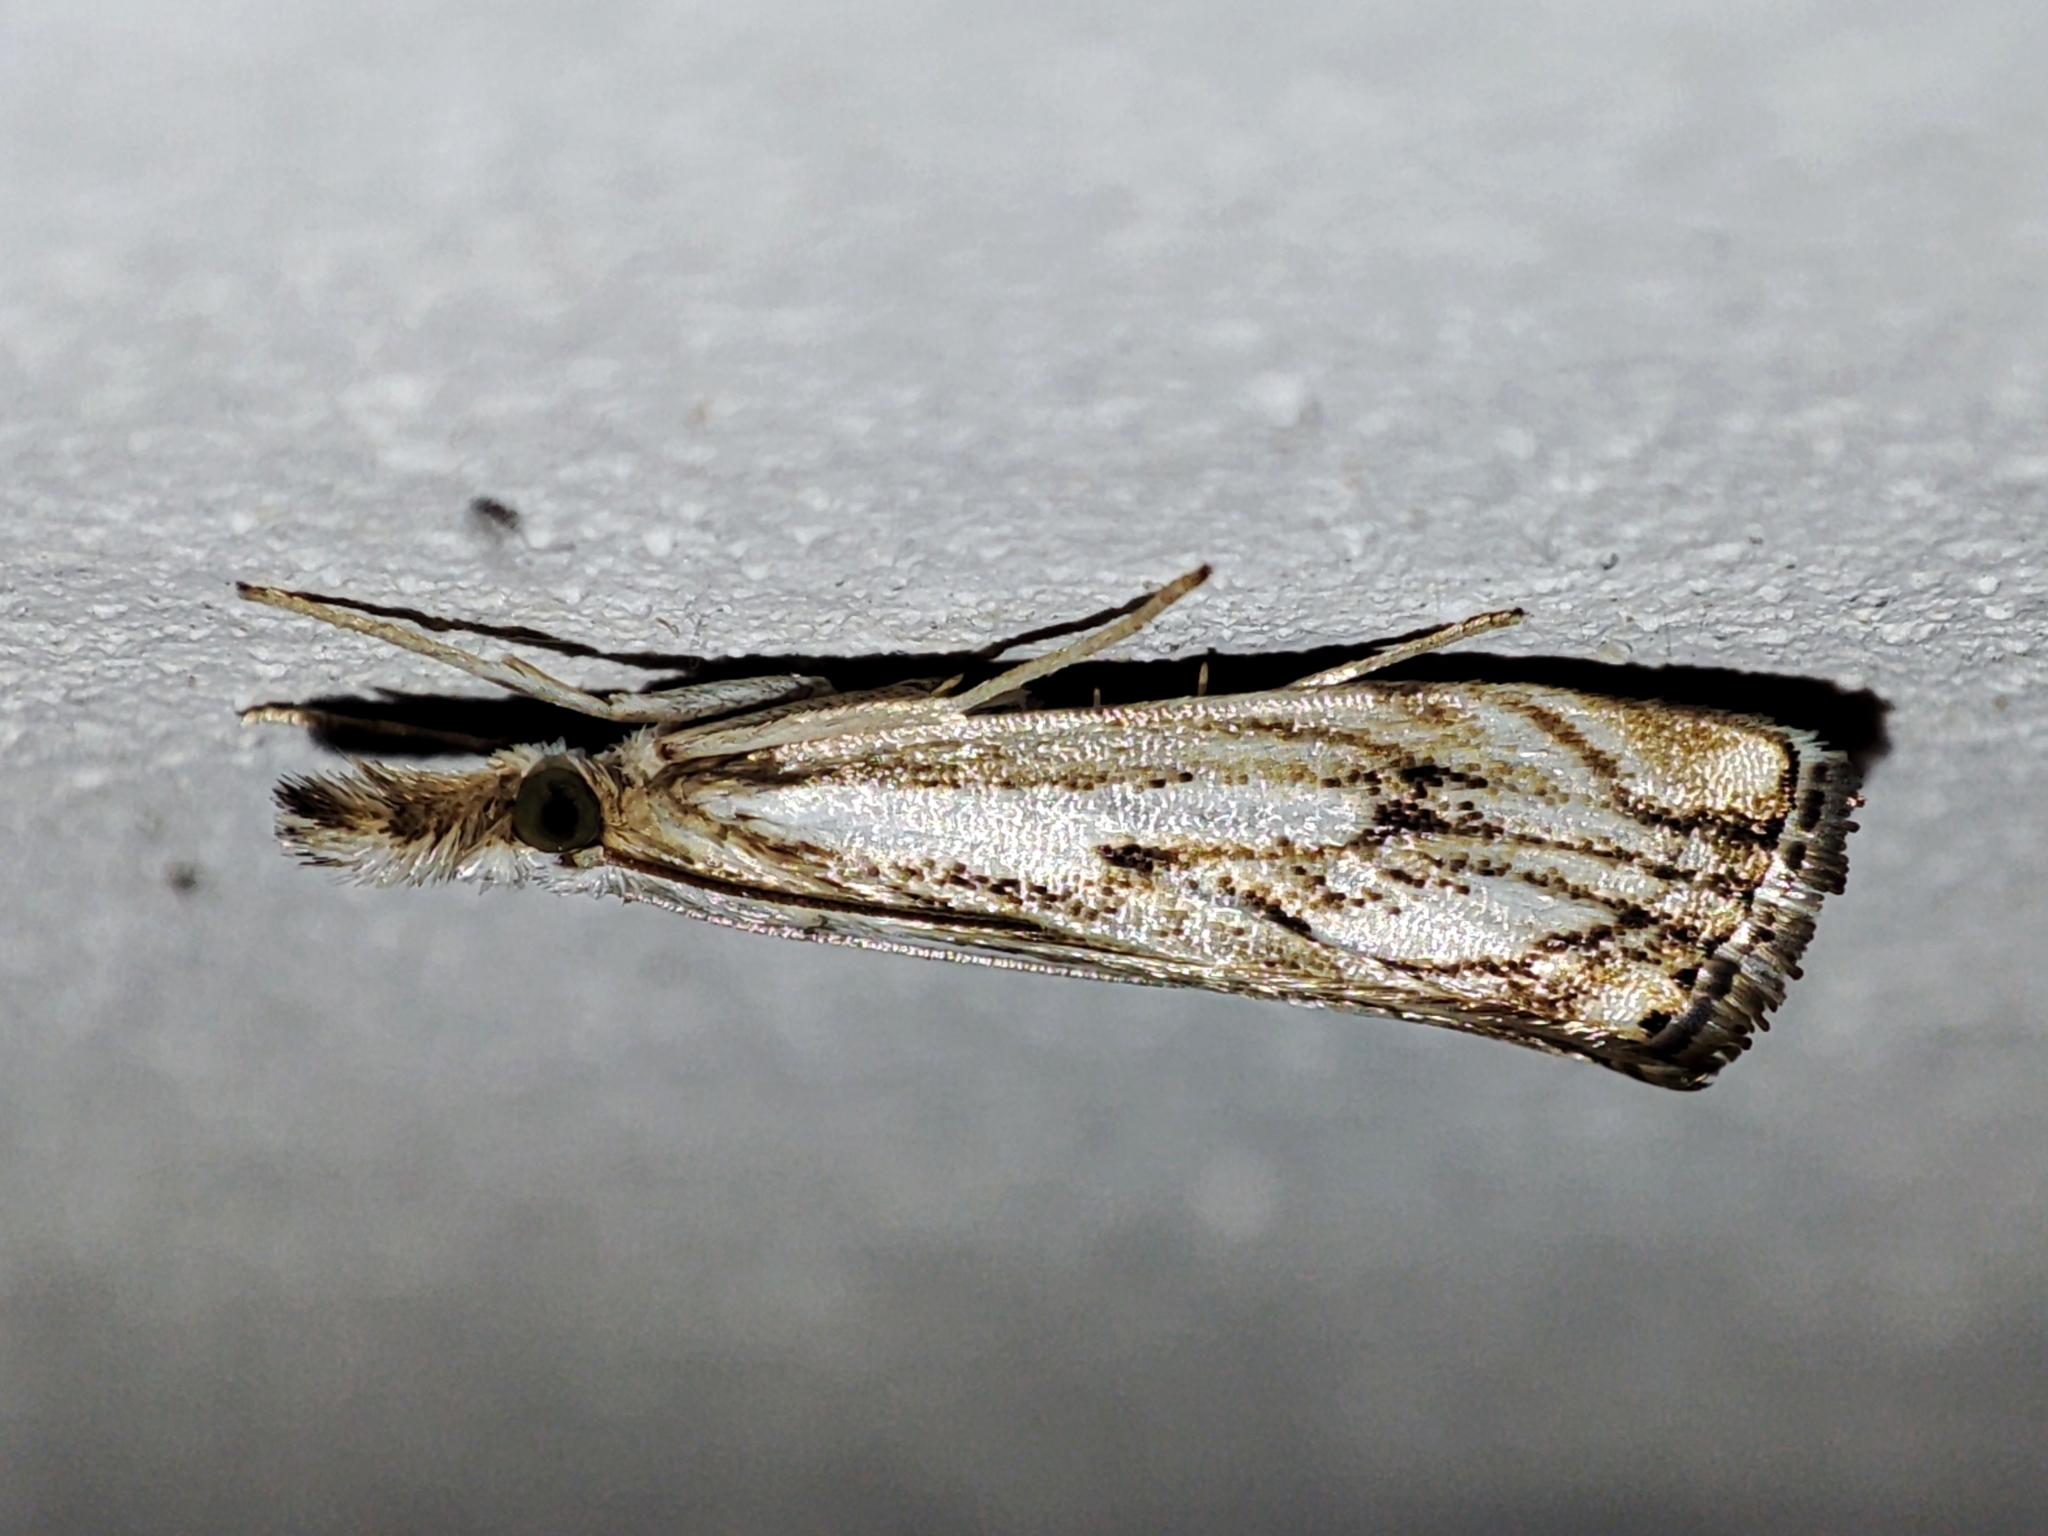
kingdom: Animalia
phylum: Arthropoda
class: Insecta
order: Lepidoptera
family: Crambidae
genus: Catoptria
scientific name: Catoptria falsella
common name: Chequered grass-veneer
